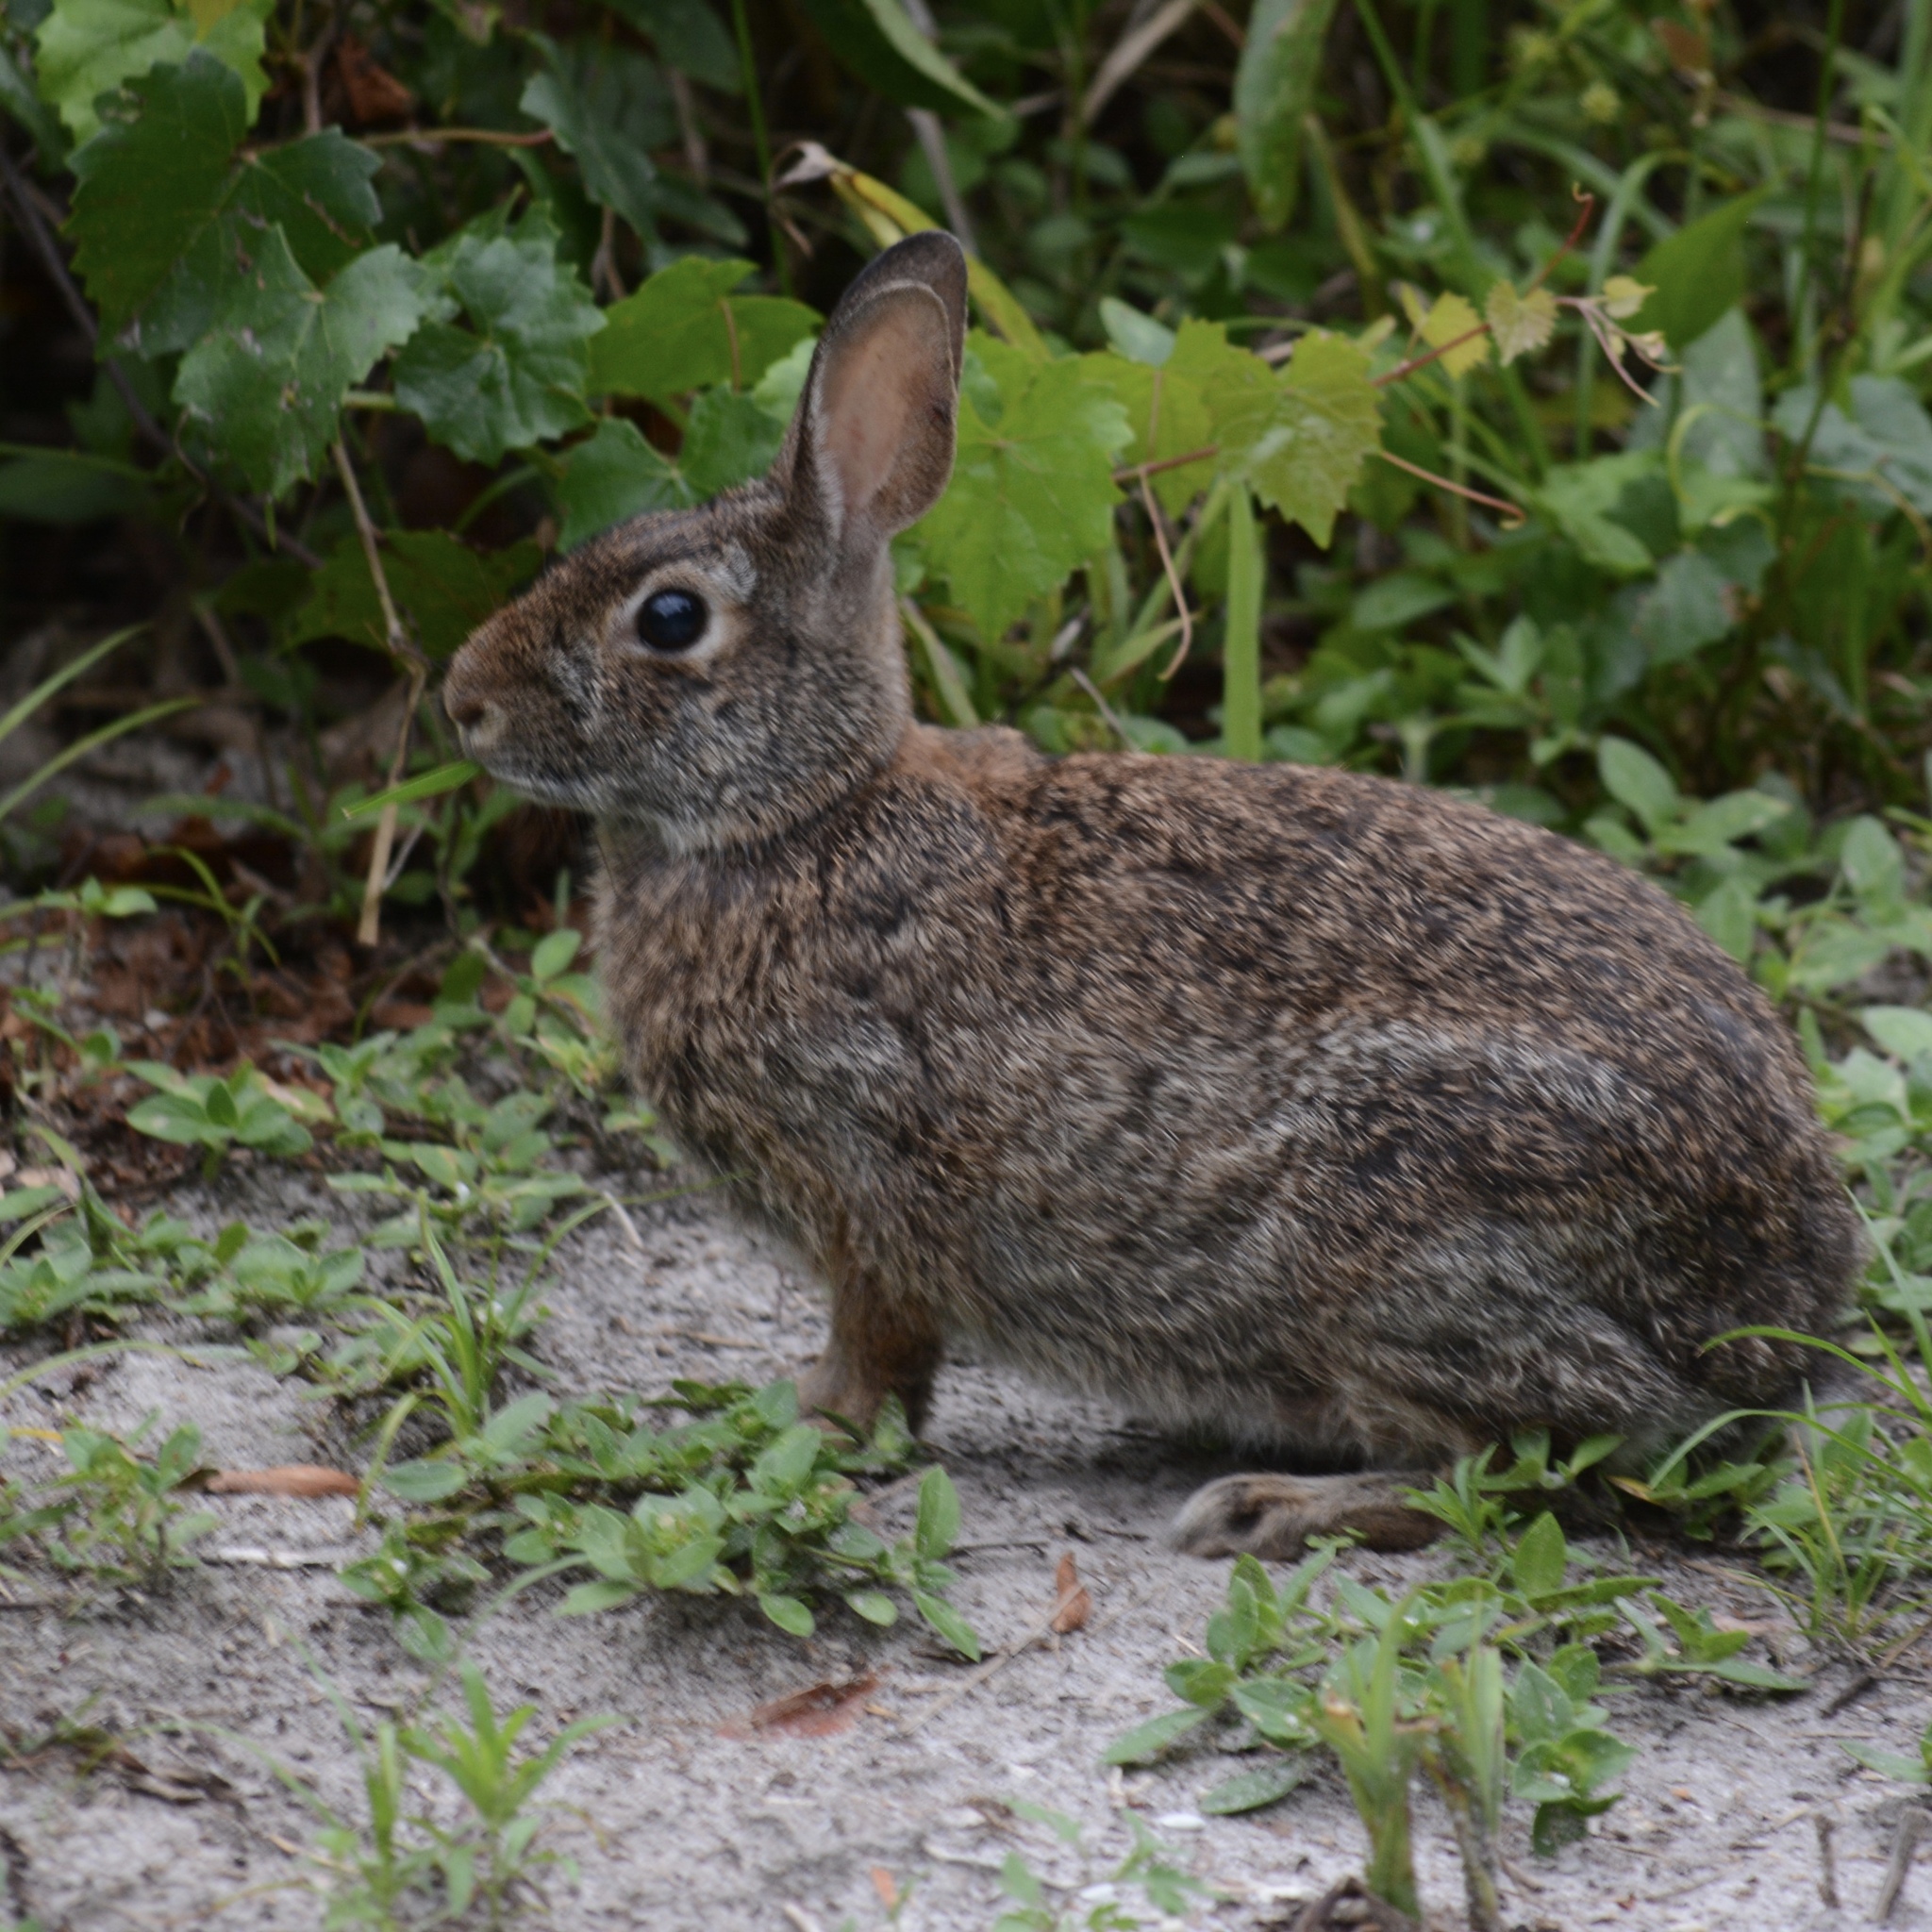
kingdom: Animalia
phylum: Chordata
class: Mammalia
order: Lagomorpha
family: Leporidae
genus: Sylvilagus
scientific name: Sylvilagus floridanus
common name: Eastern cottontail
